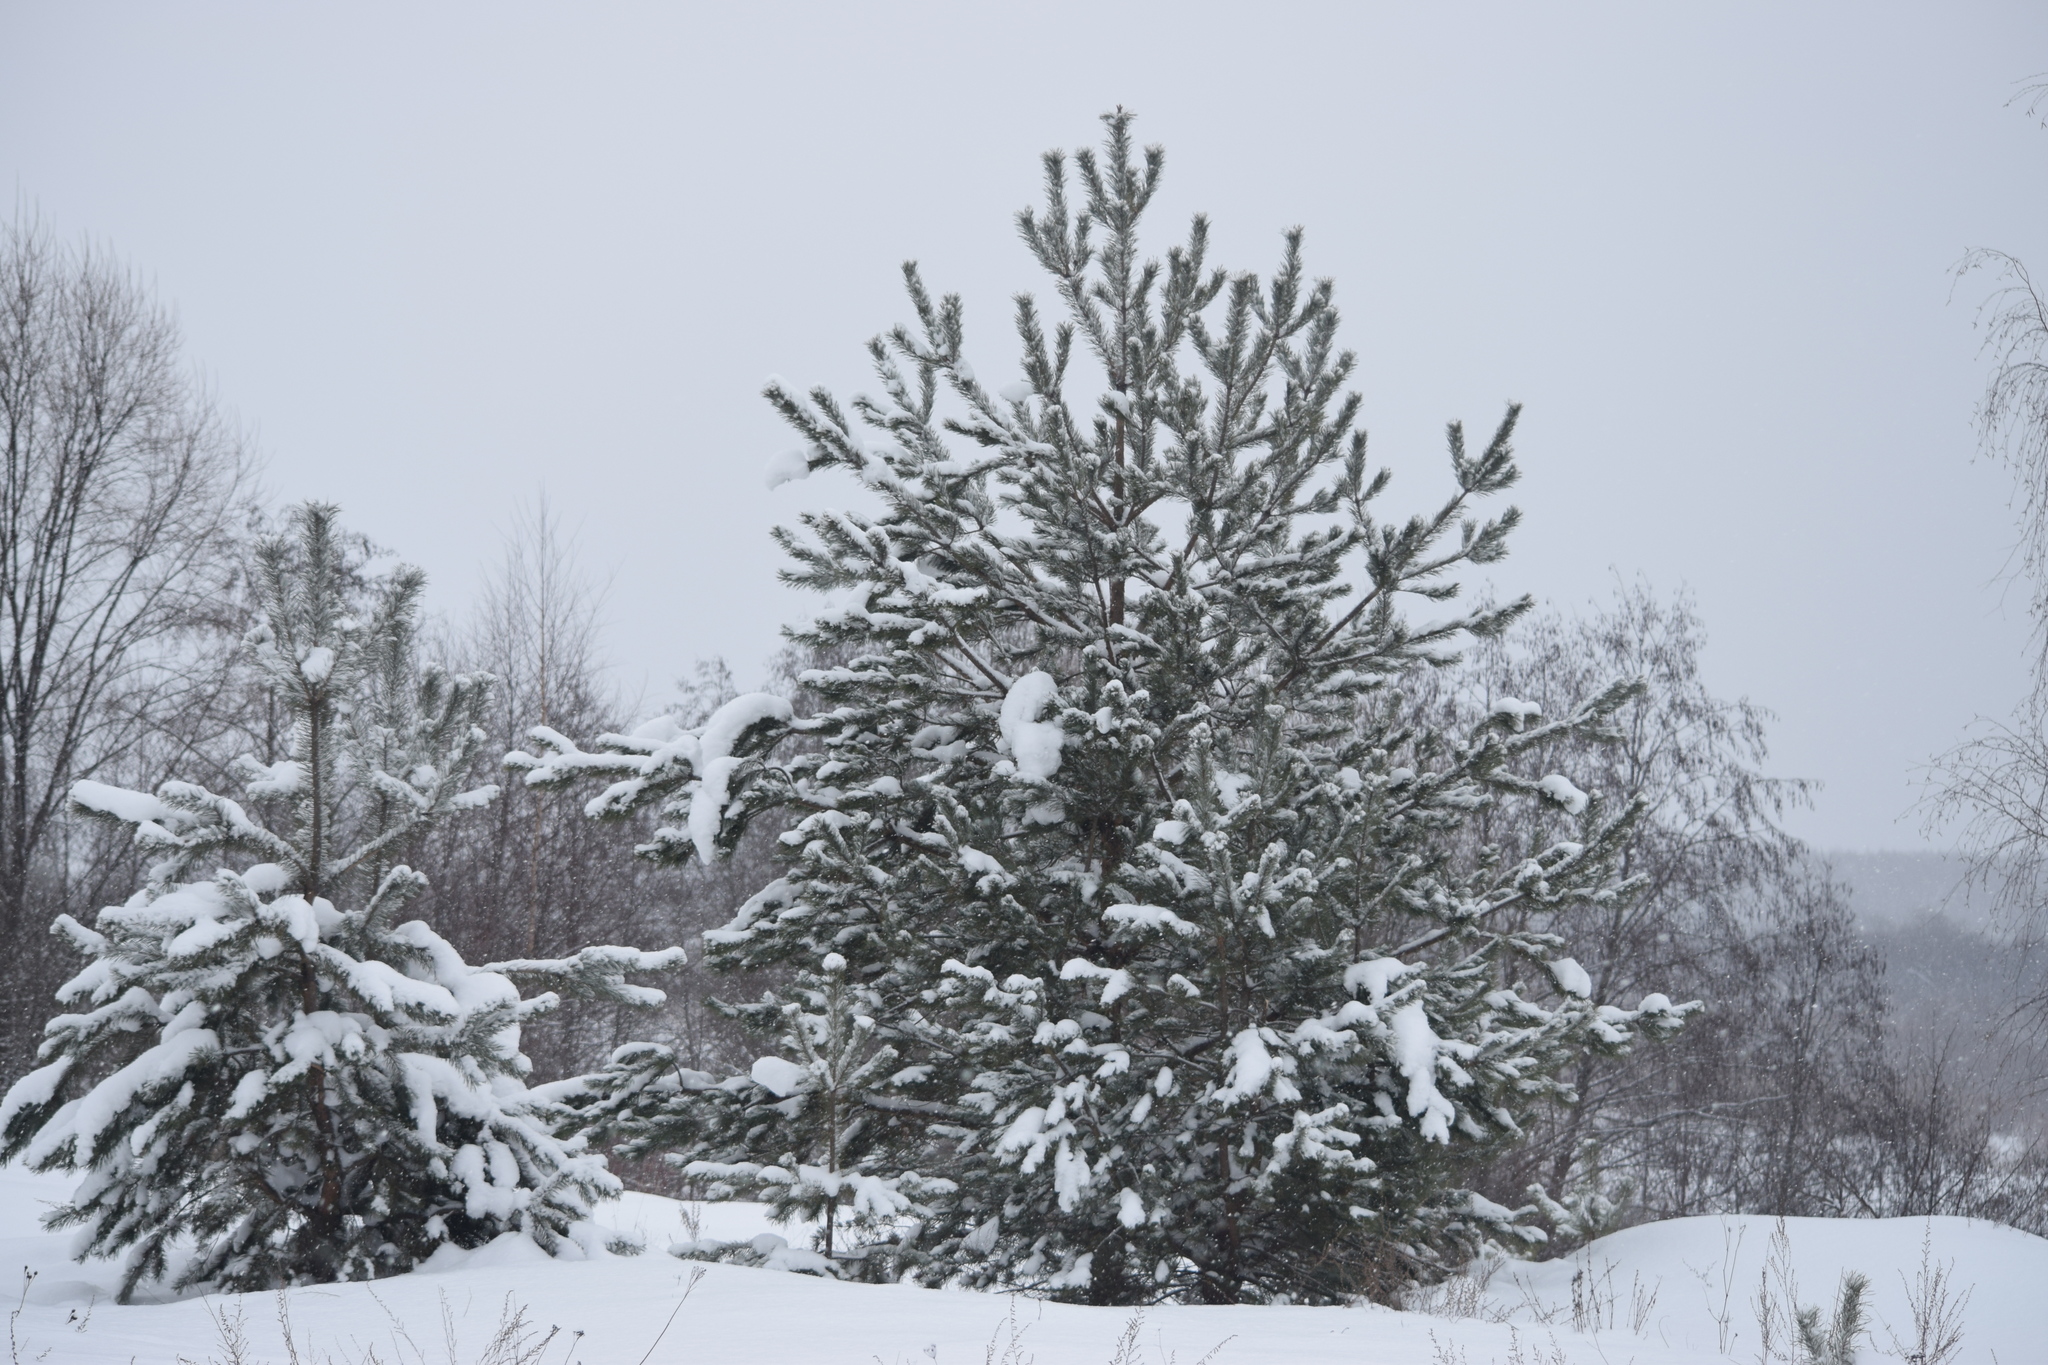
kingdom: Plantae
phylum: Tracheophyta
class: Pinopsida
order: Pinales
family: Pinaceae
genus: Pinus
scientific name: Pinus sylvestris
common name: Scots pine
